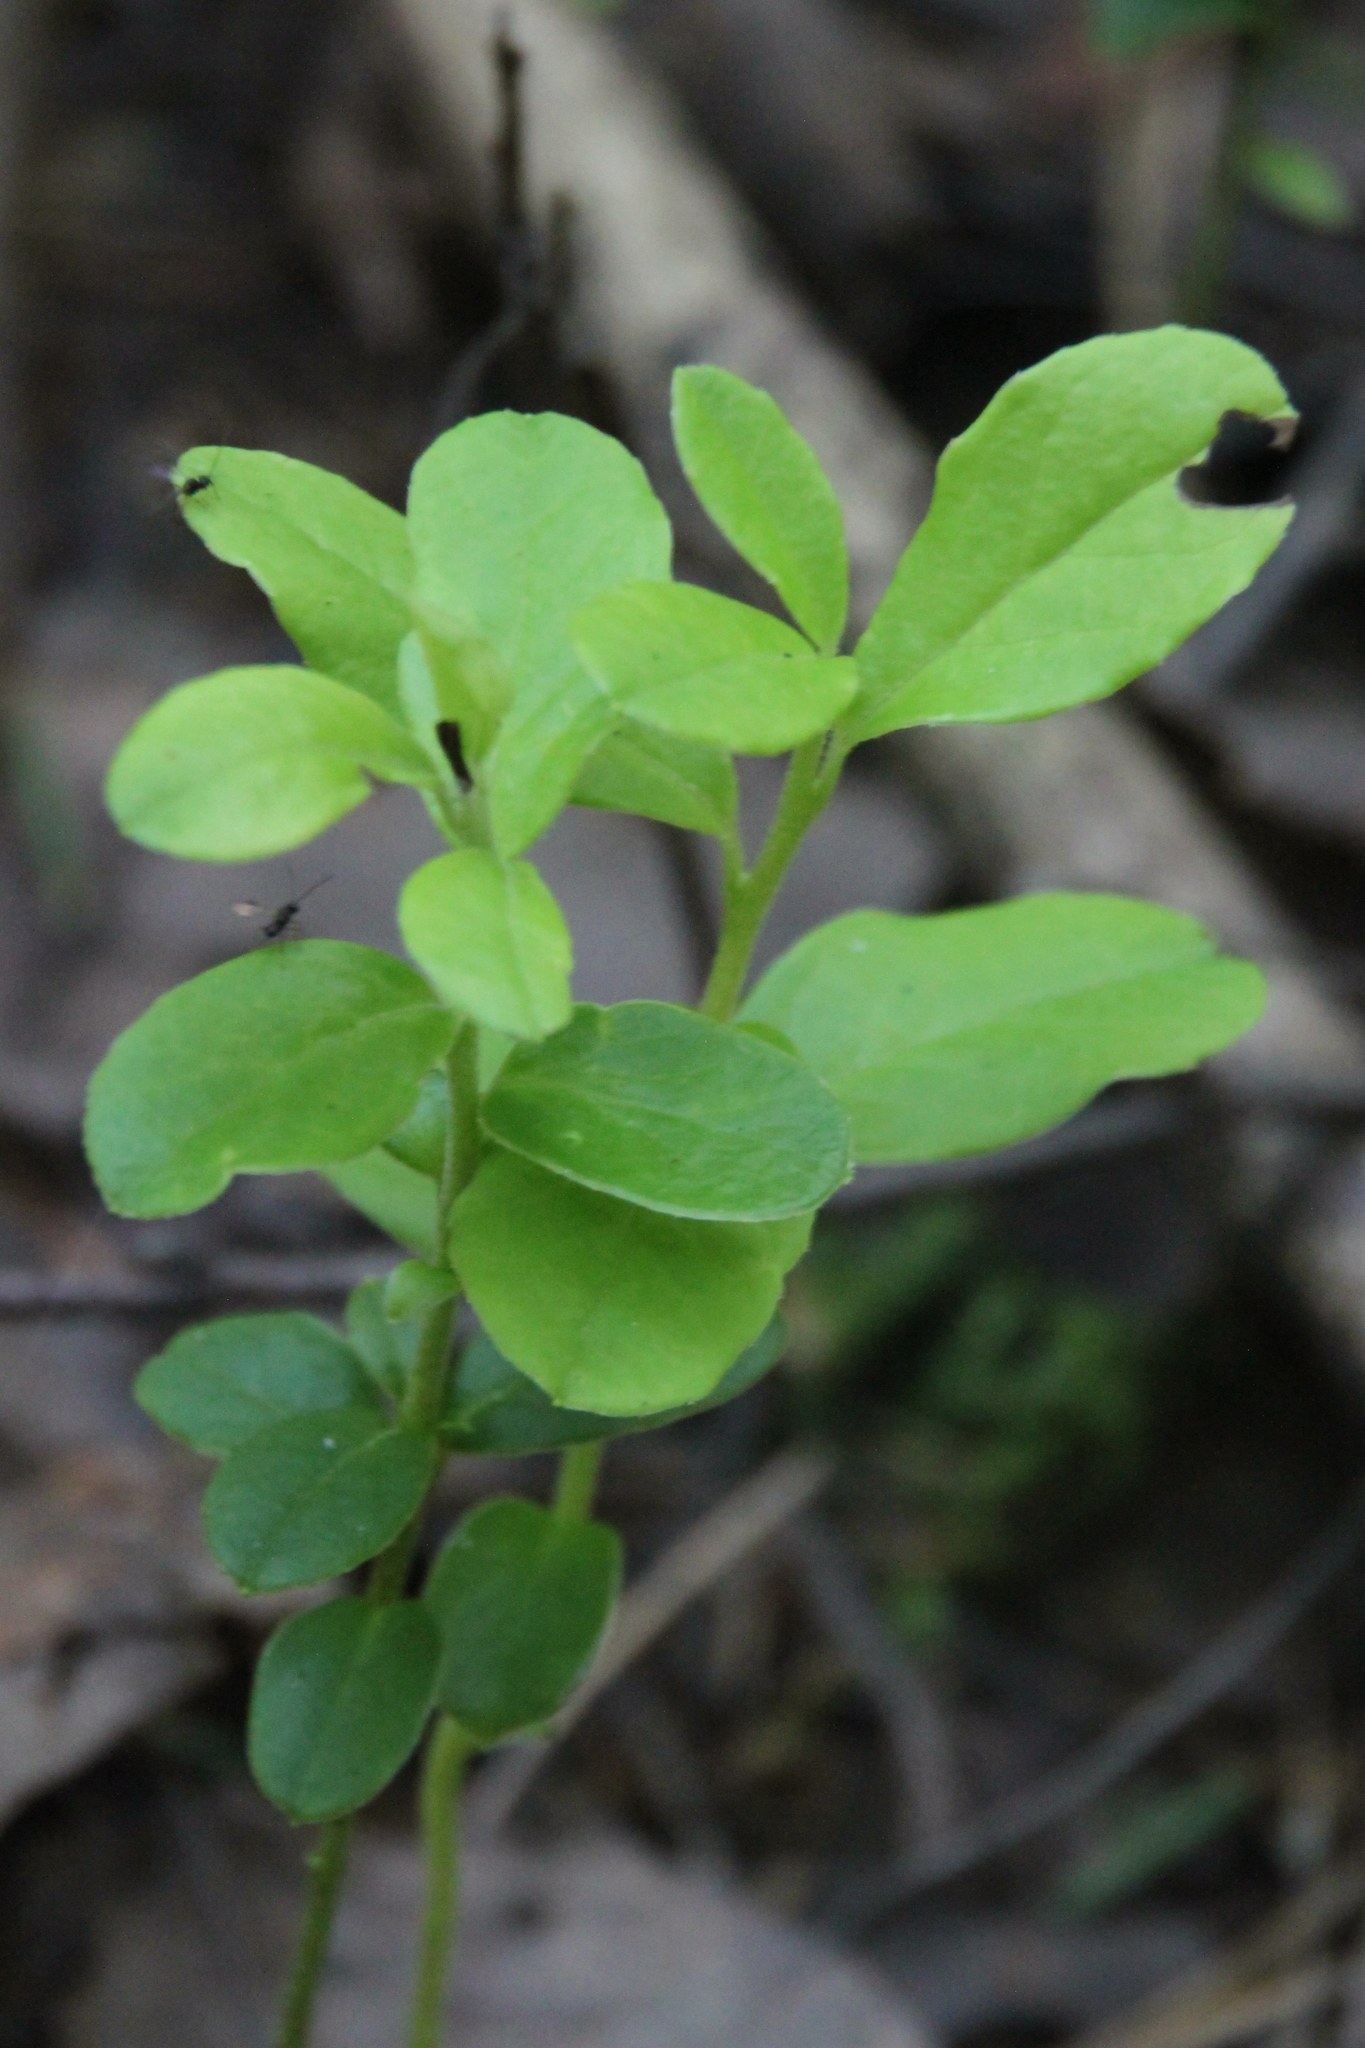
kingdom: Plantae
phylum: Tracheophyta
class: Magnoliopsida
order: Ericales
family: Ericaceae
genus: Vaccinium
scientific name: Vaccinium vitis-idaea
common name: Cowberry
